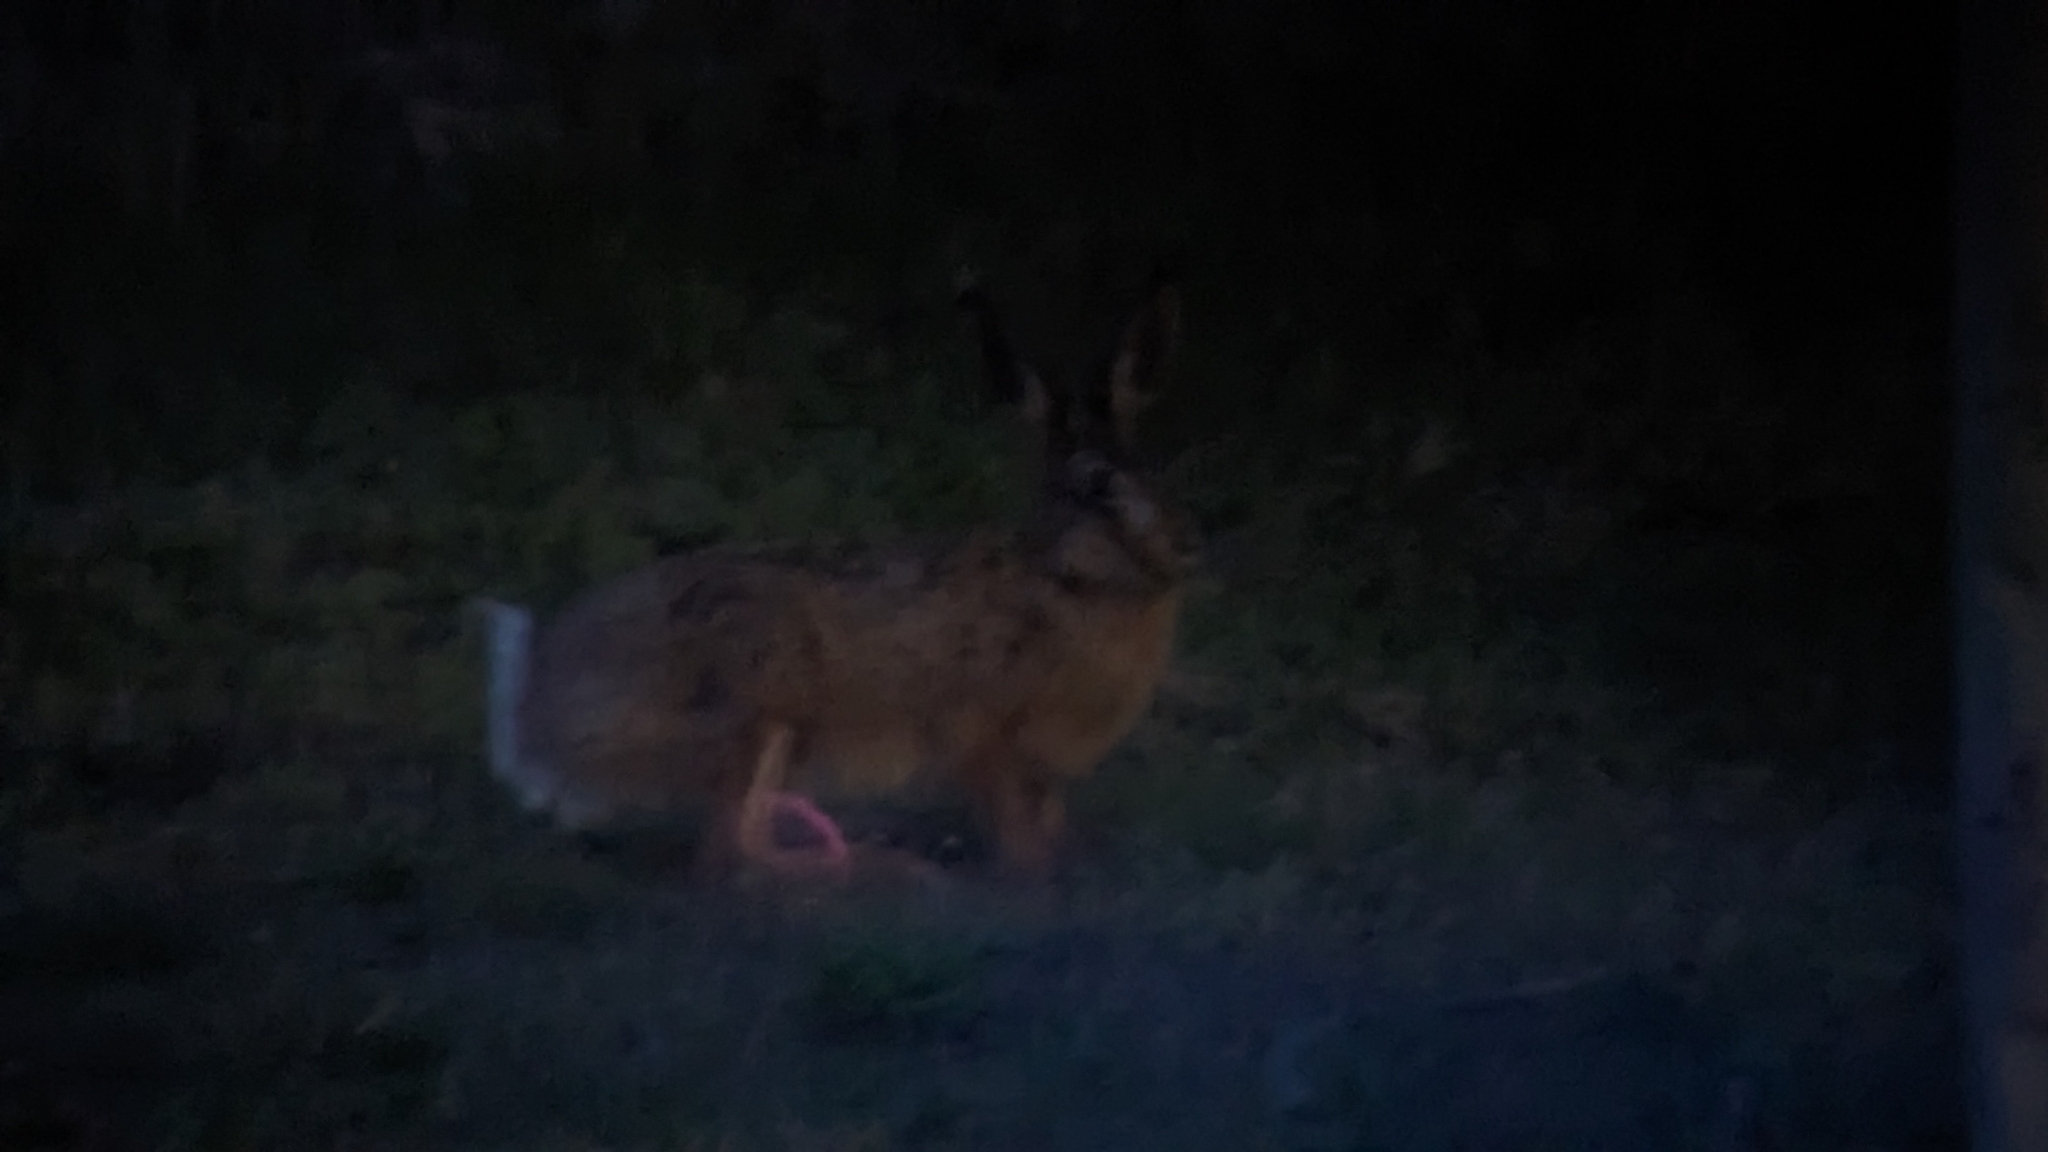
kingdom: Animalia
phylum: Chordata
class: Mammalia
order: Lagomorpha
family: Leporidae
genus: Lepus
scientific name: Lepus europaeus
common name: European hare
